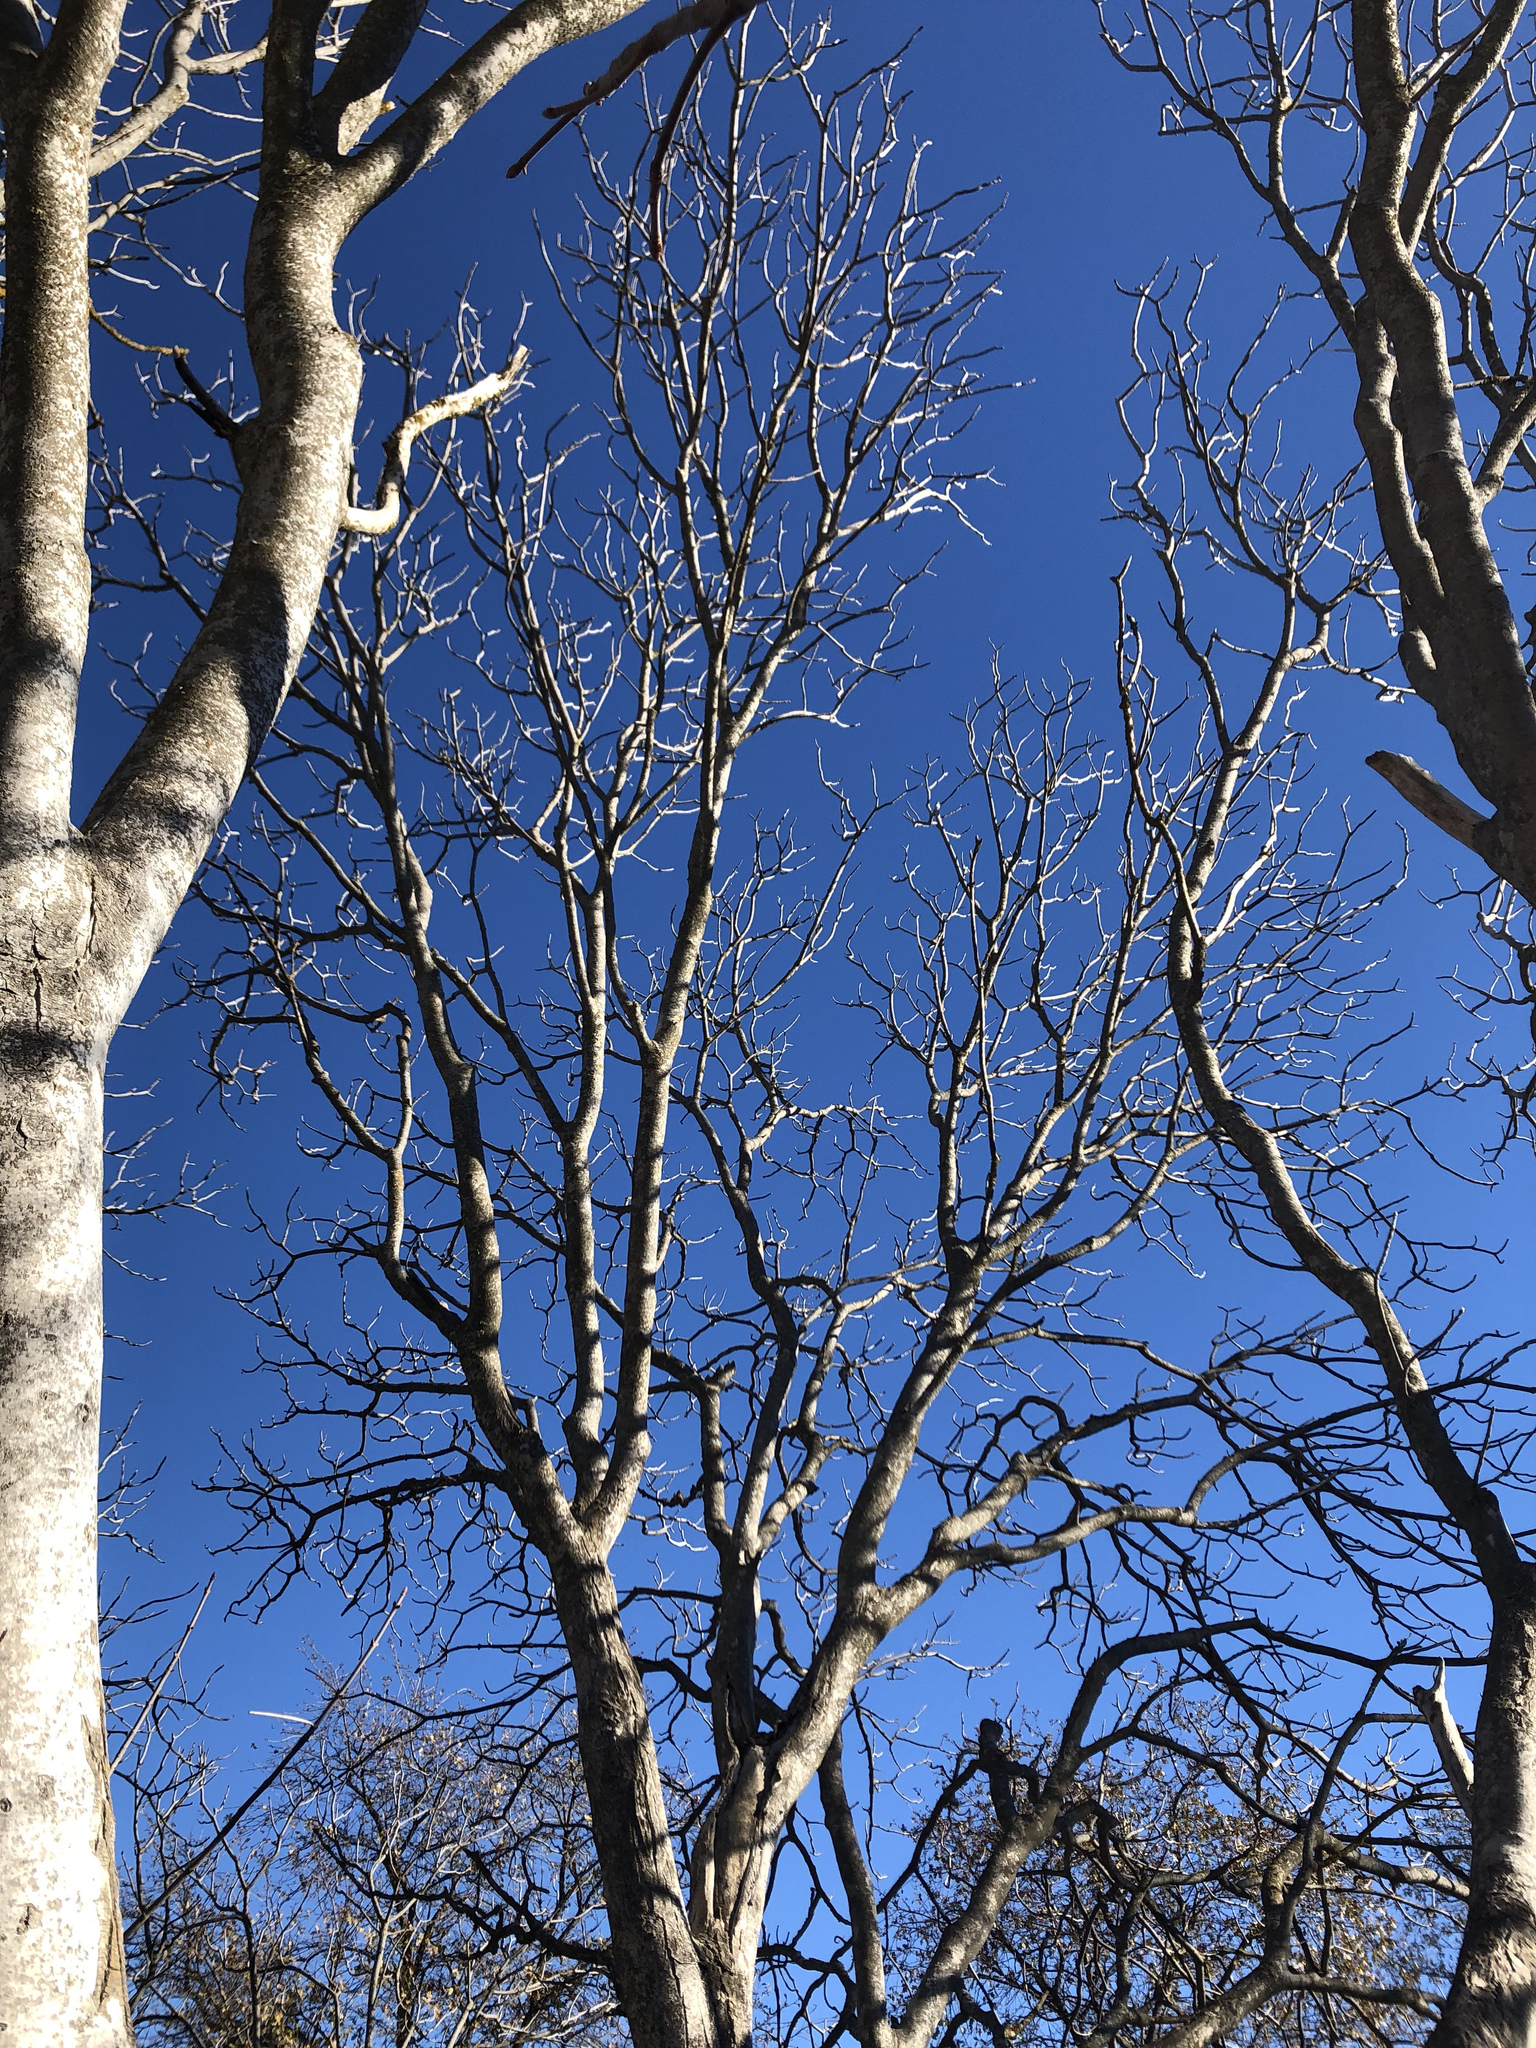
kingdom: Plantae
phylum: Tracheophyta
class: Magnoliopsida
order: Sapindales
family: Sapindaceae
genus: Aesculus
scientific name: Aesculus californica
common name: California buckeye
